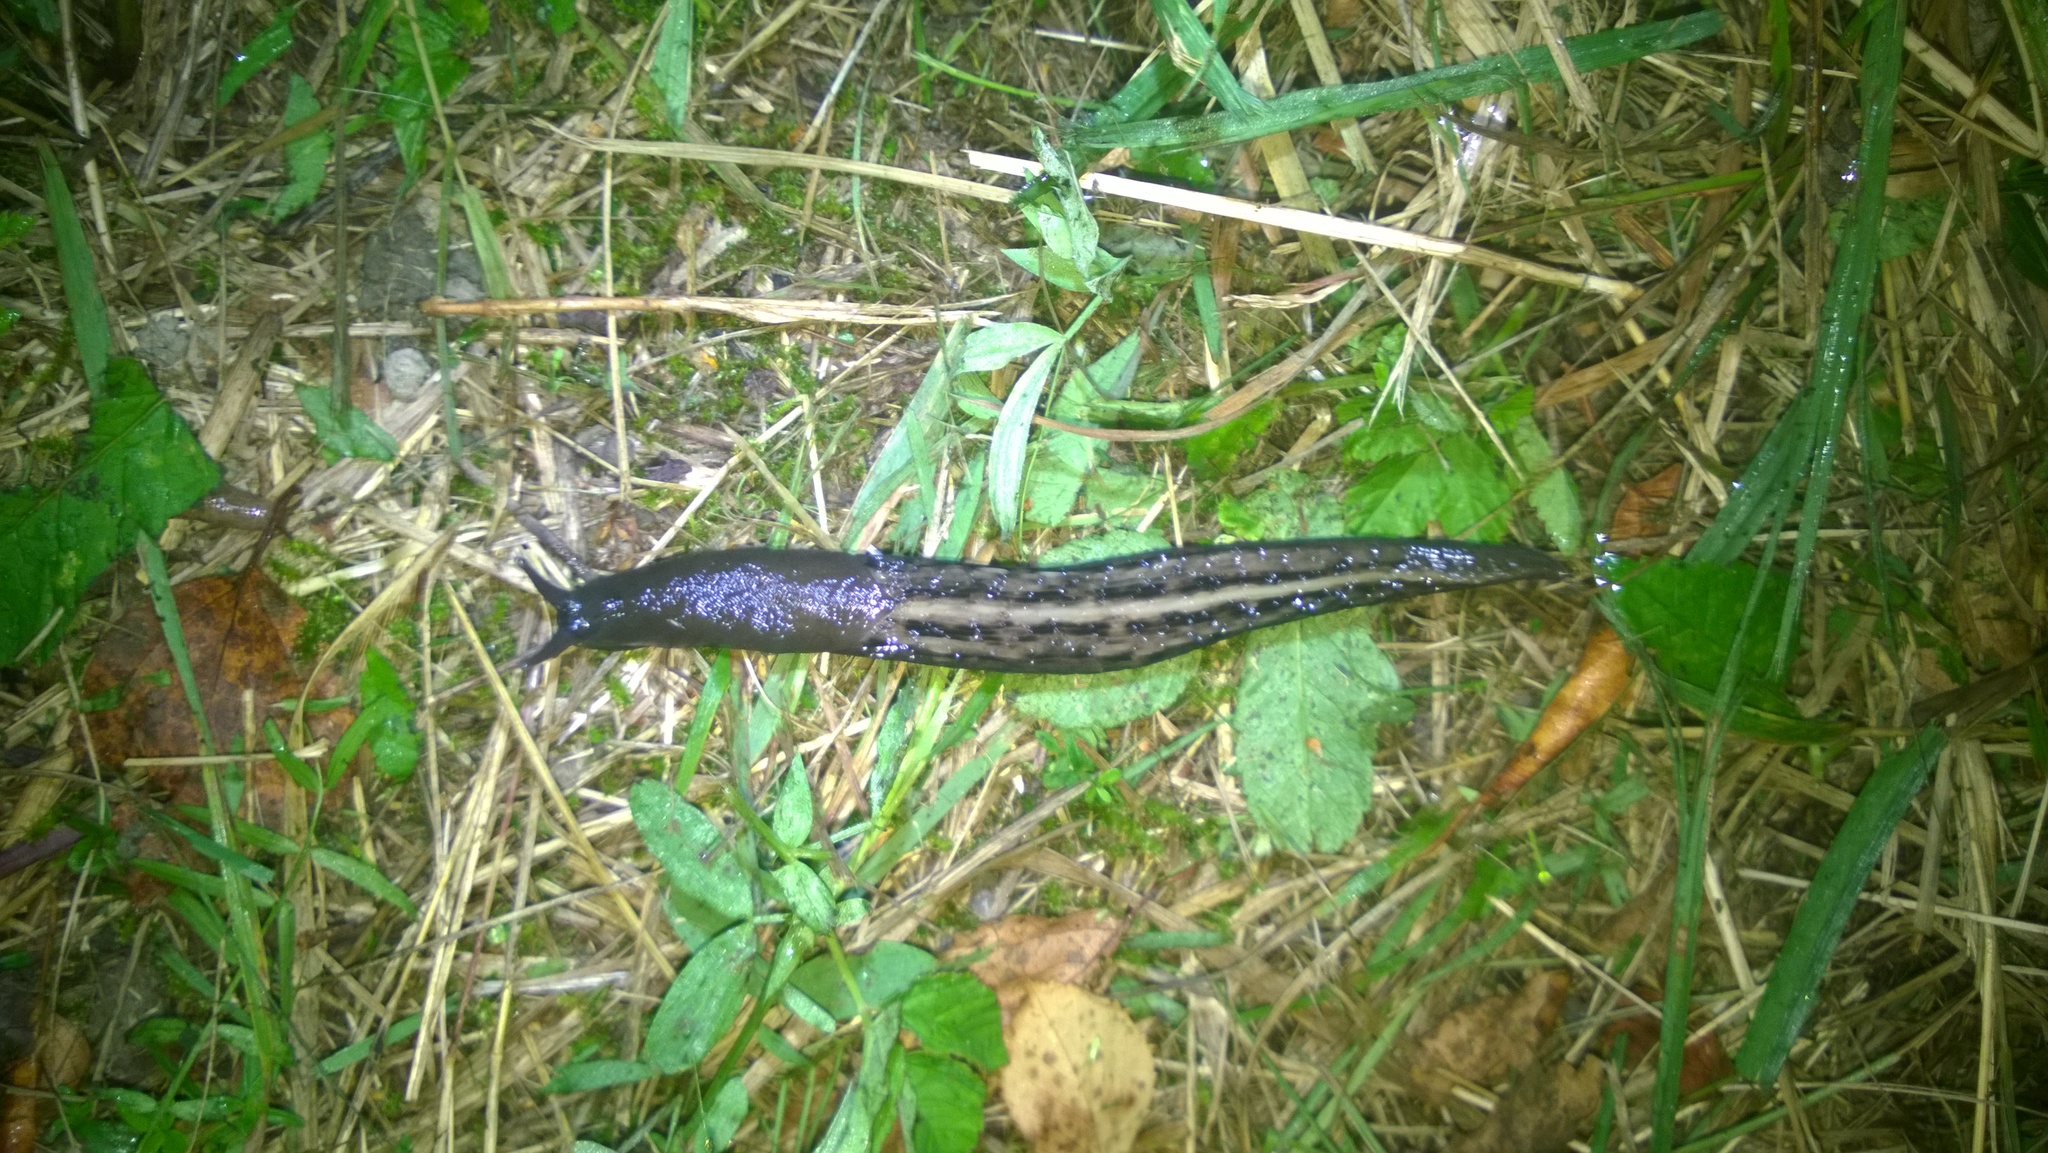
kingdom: Animalia
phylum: Mollusca
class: Gastropoda
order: Stylommatophora
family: Limacidae
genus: Limax
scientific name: Limax cinereoniger
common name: Ash-black slug
